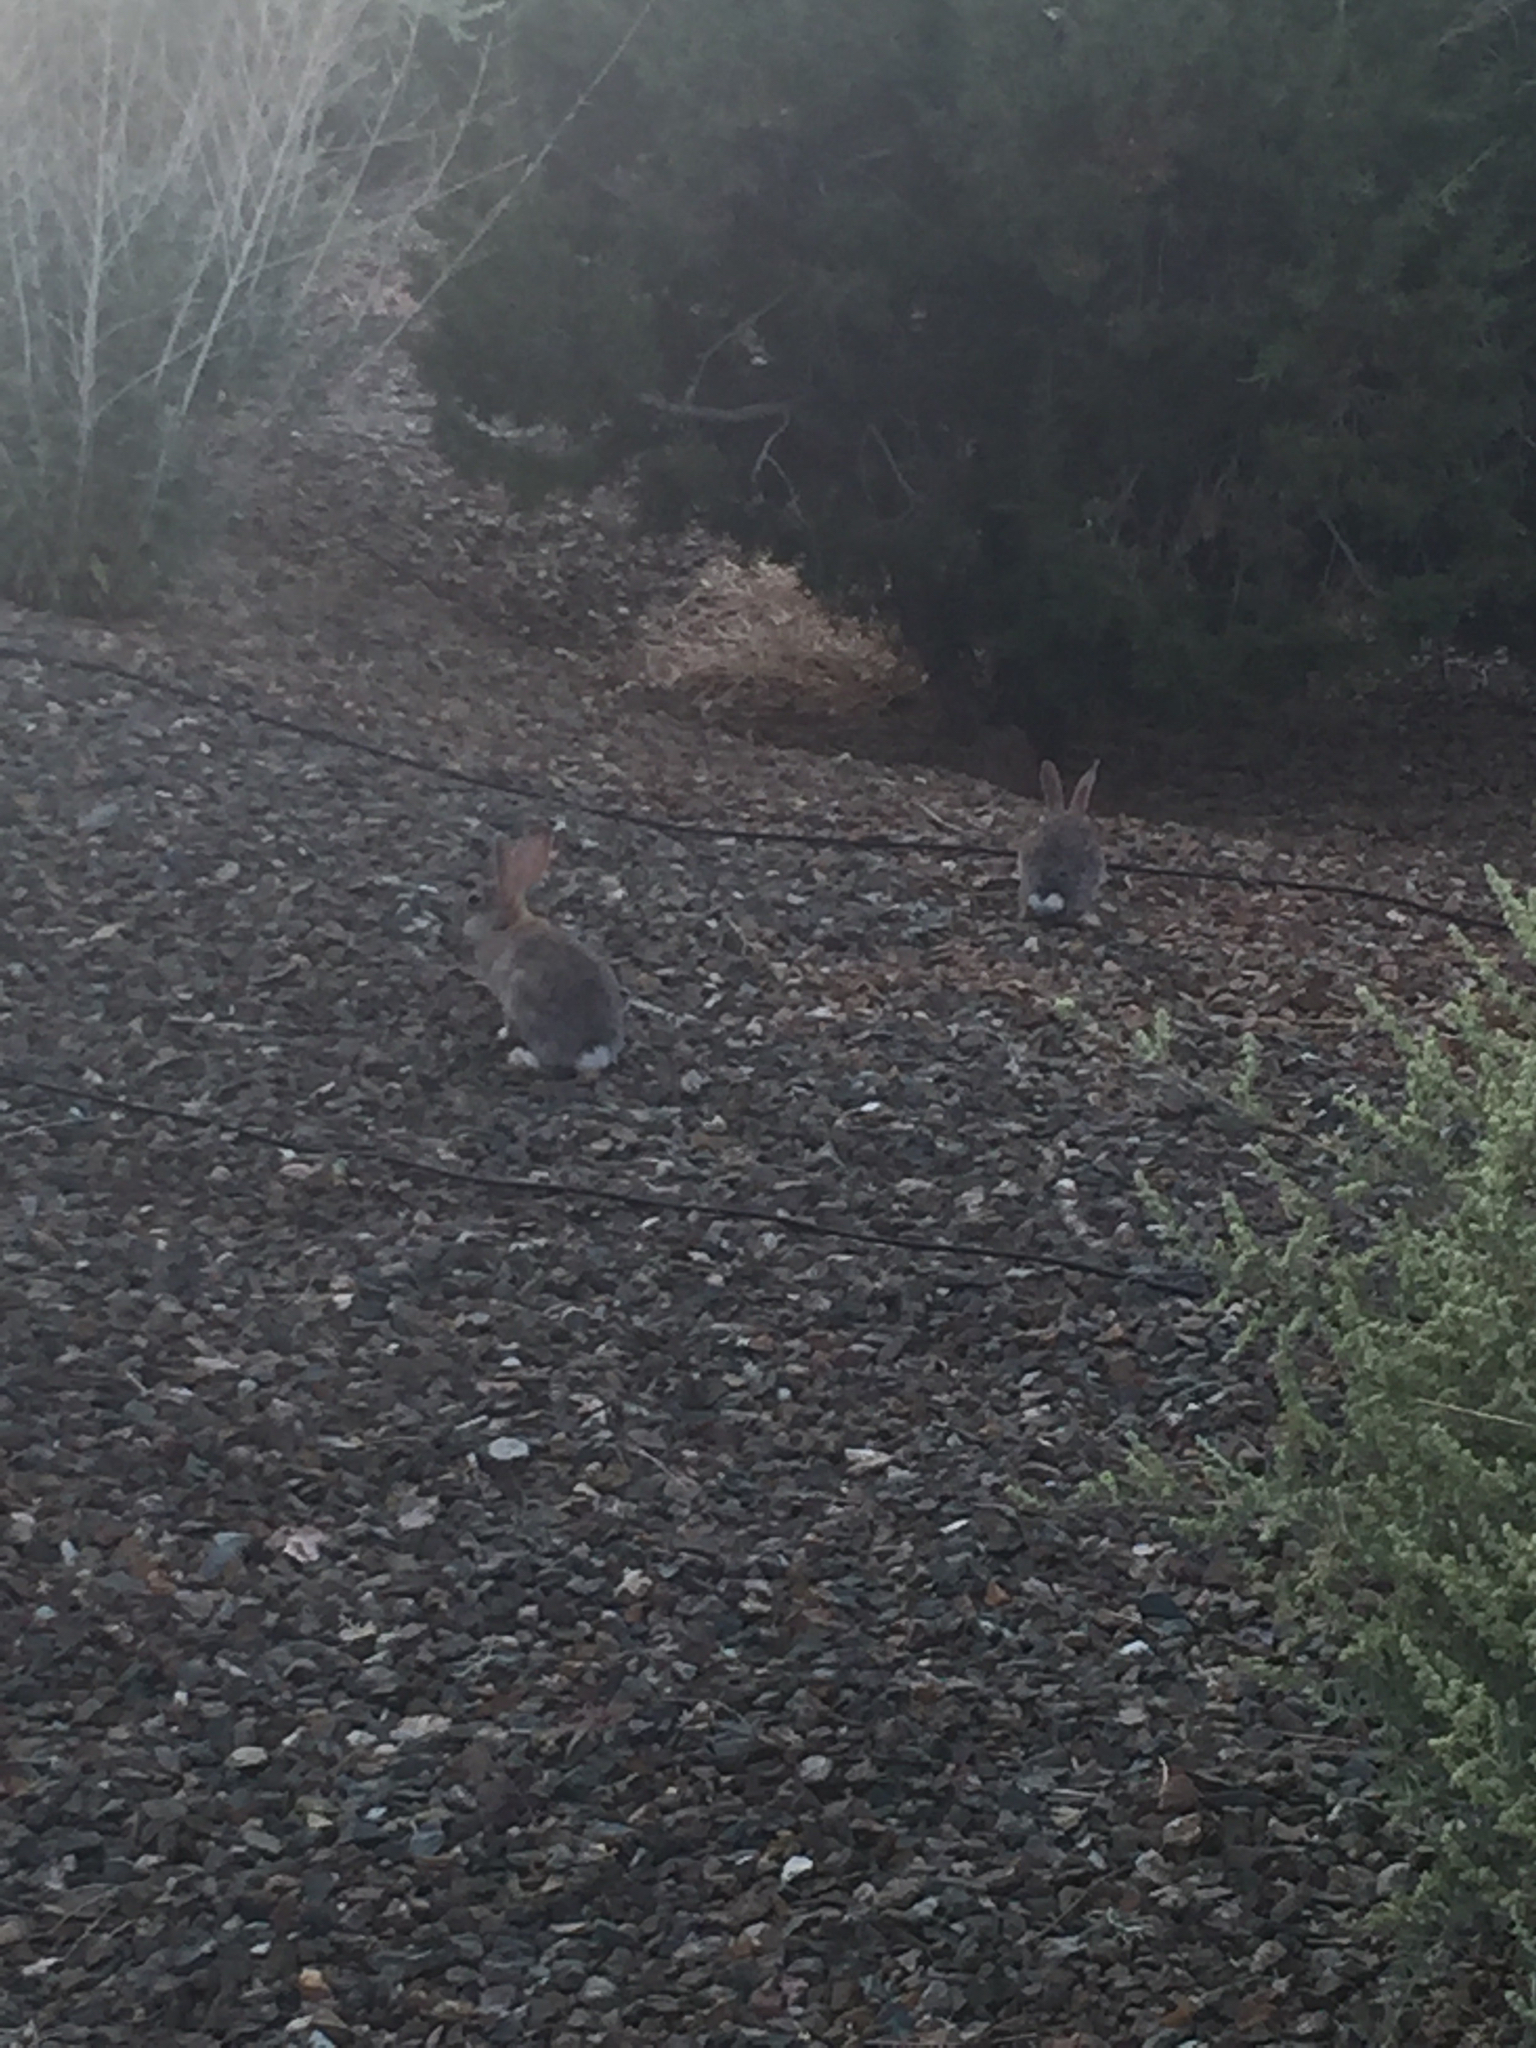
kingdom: Animalia
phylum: Chordata
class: Mammalia
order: Lagomorpha
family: Leporidae
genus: Sylvilagus
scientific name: Sylvilagus audubonii
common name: Desert cottontail
